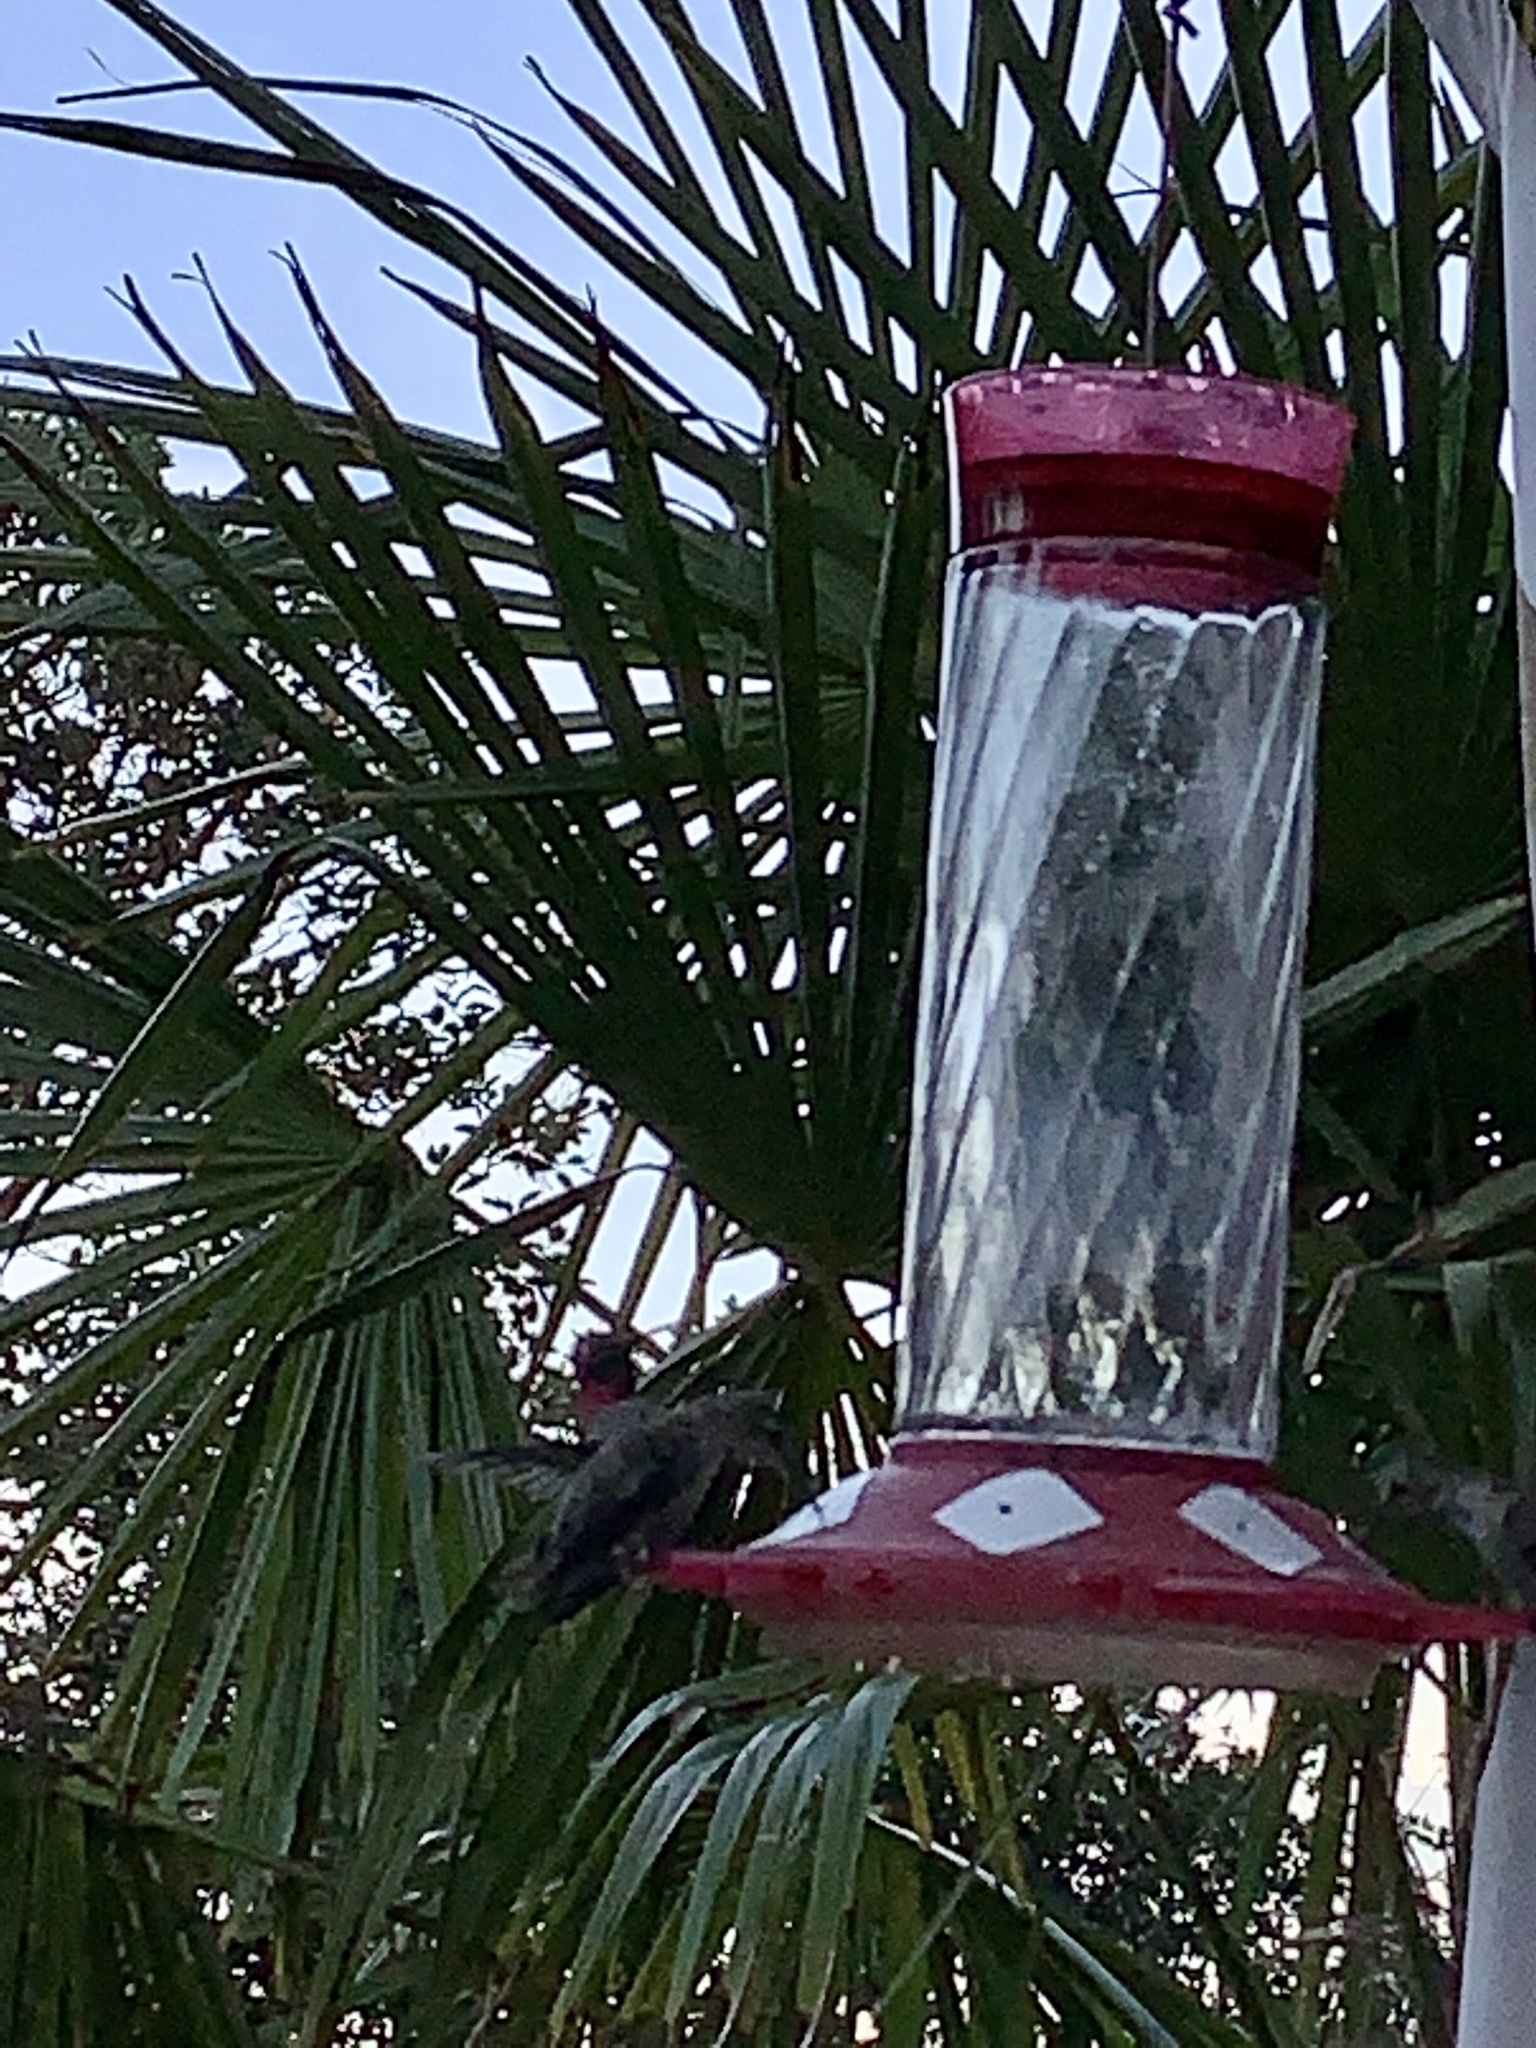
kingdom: Animalia
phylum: Chordata
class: Aves
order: Apodiformes
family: Trochilidae
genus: Calypte
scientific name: Calypte anna
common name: Anna's hummingbird
